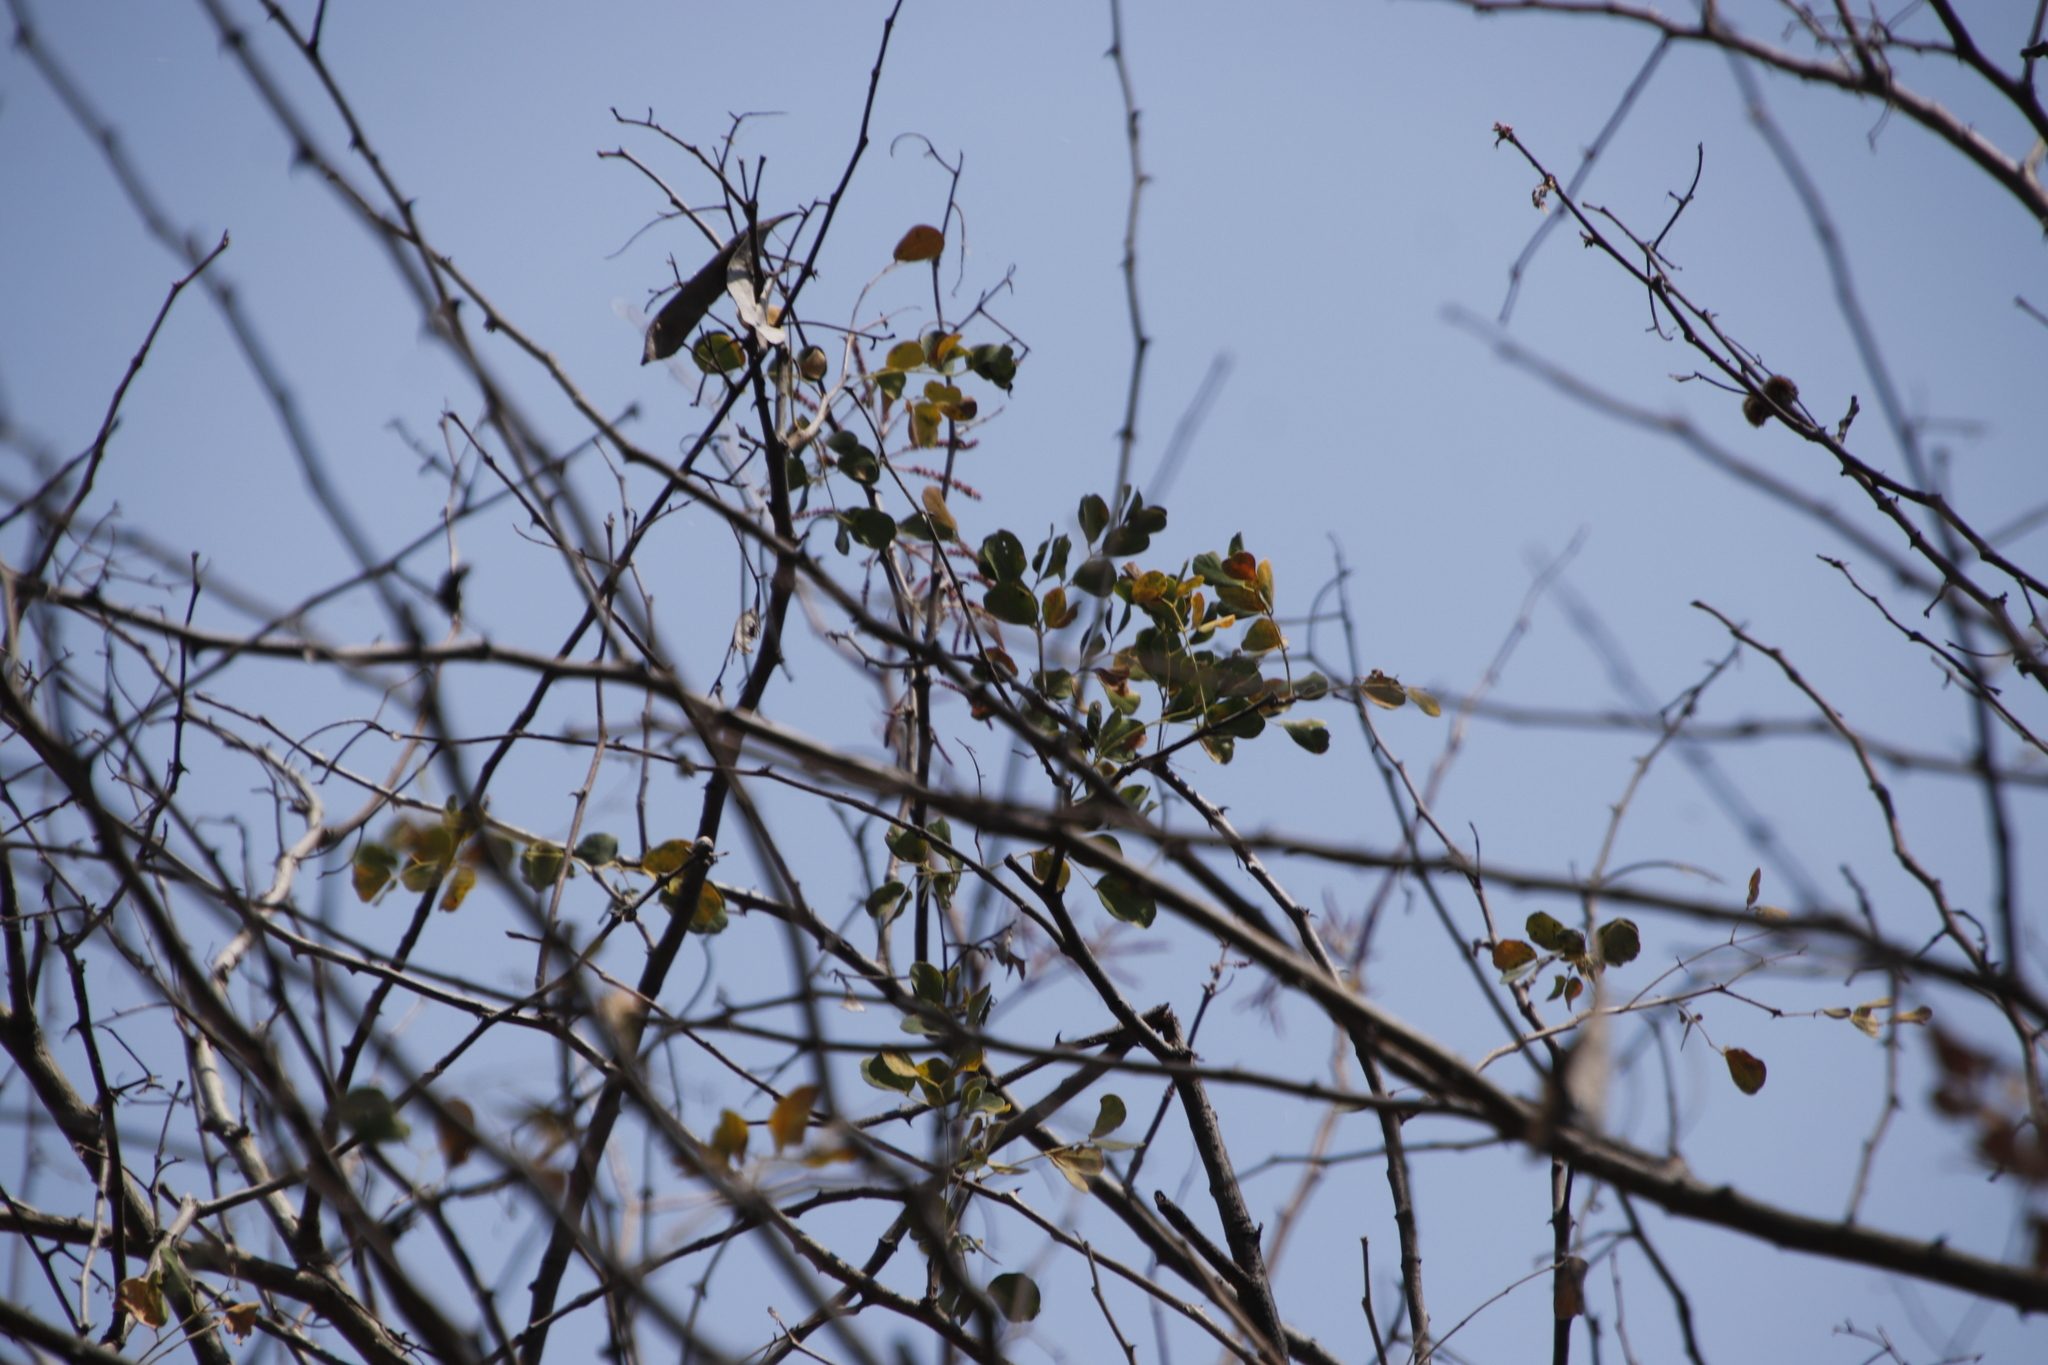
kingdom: Plantae
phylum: Tracheophyta
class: Magnoliopsida
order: Fabales
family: Fabaceae
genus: Senegalia
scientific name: Senegalia nigrescens
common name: Knobthorn
